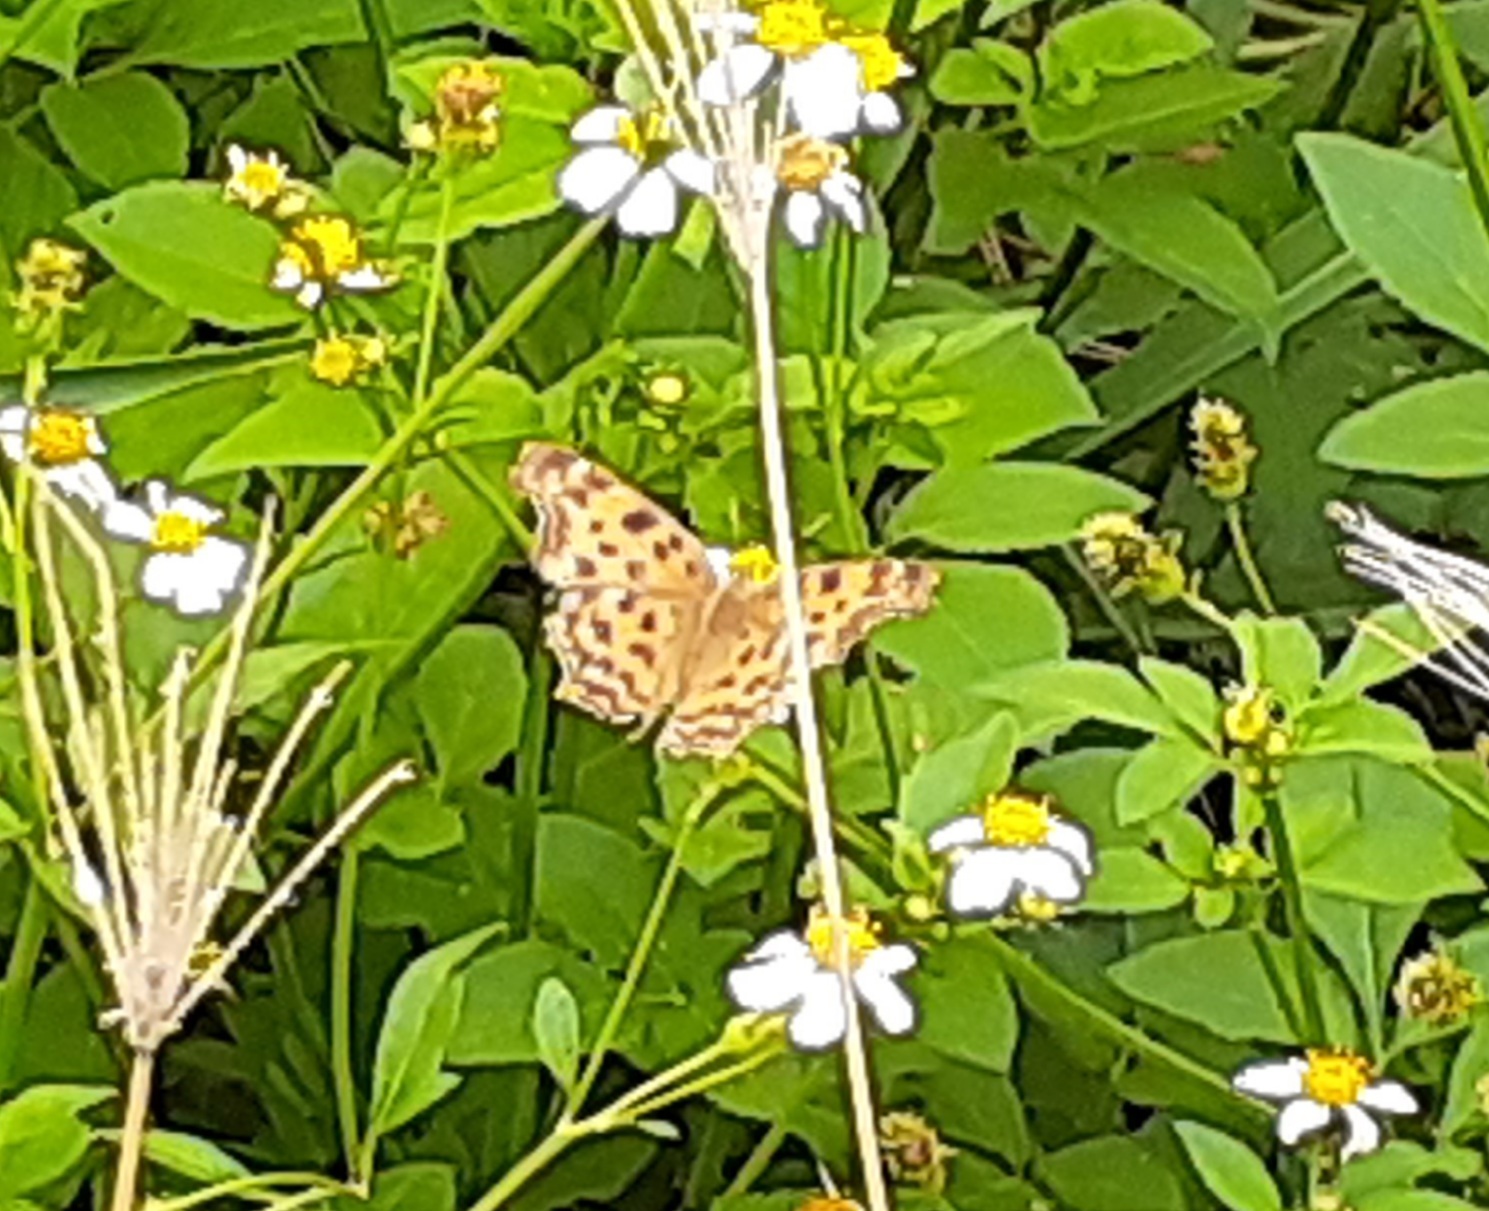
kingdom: Animalia
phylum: Arthropoda
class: Insecta
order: Lepidoptera
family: Nymphalidae
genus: Polygonia
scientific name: Polygonia c-aureum
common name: Asian comma
